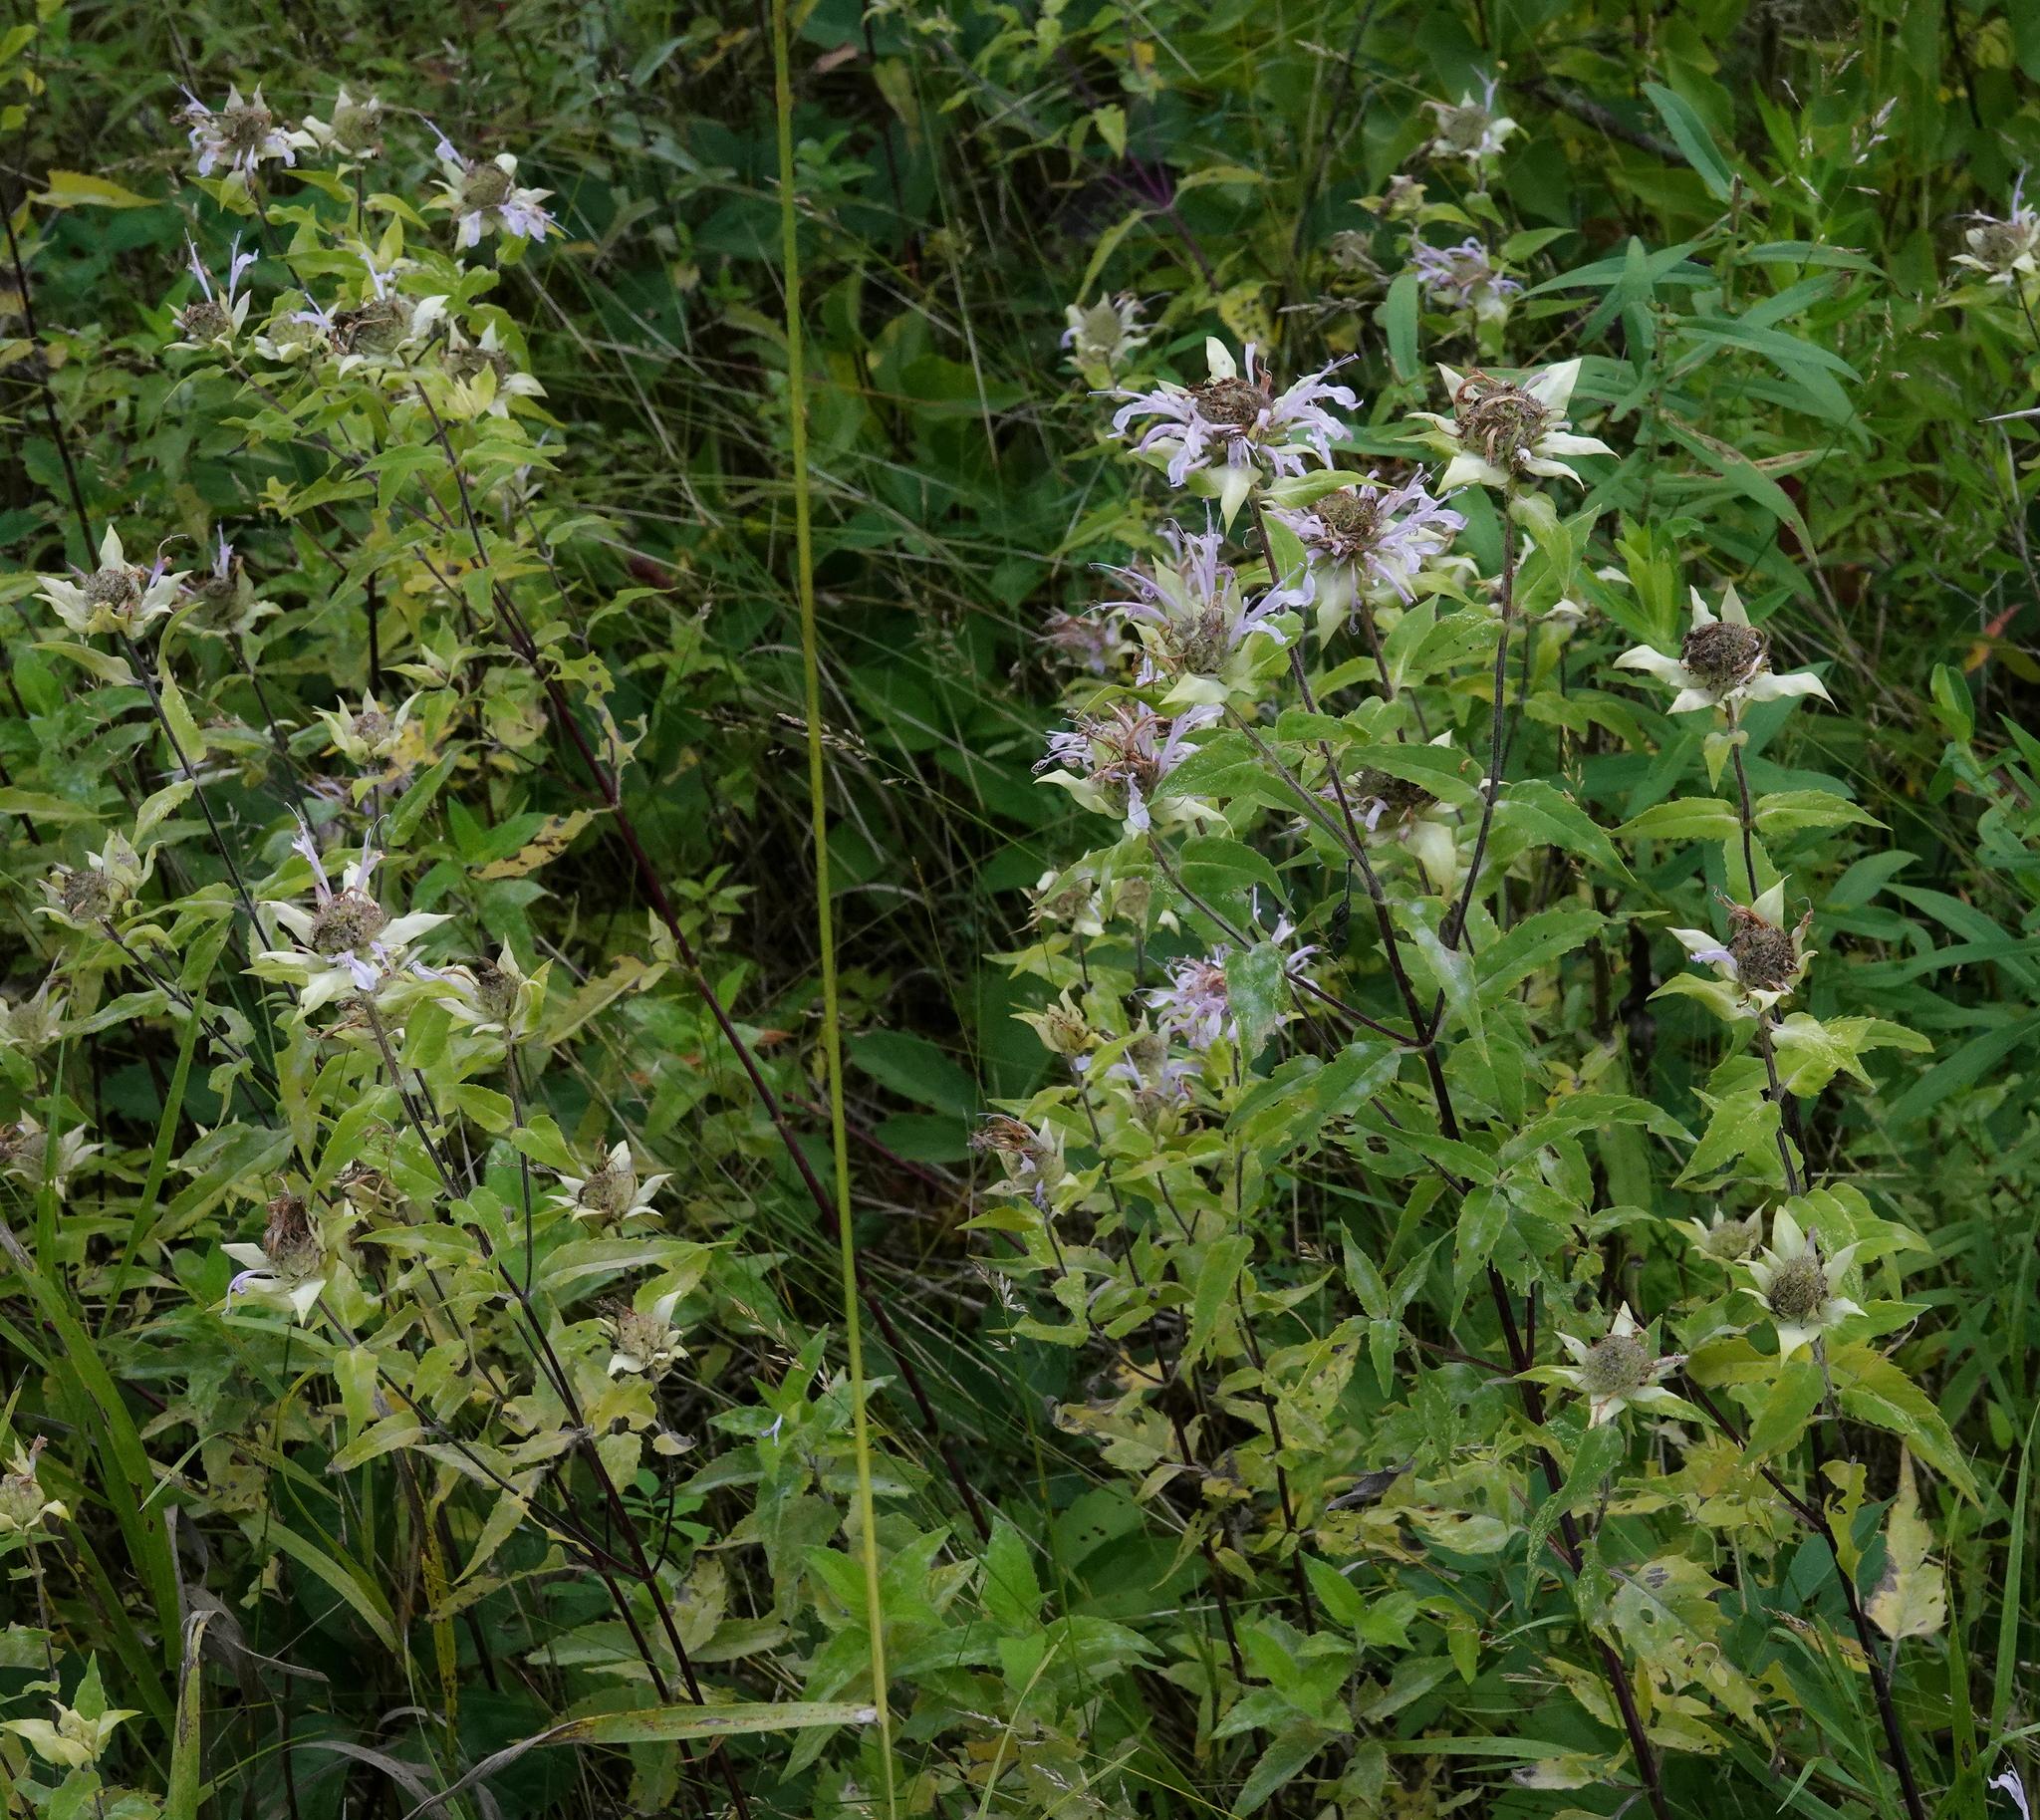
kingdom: Plantae
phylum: Tracheophyta
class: Magnoliopsida
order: Lamiales
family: Lamiaceae
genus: Monarda
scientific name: Monarda fistulosa
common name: Purple beebalm
